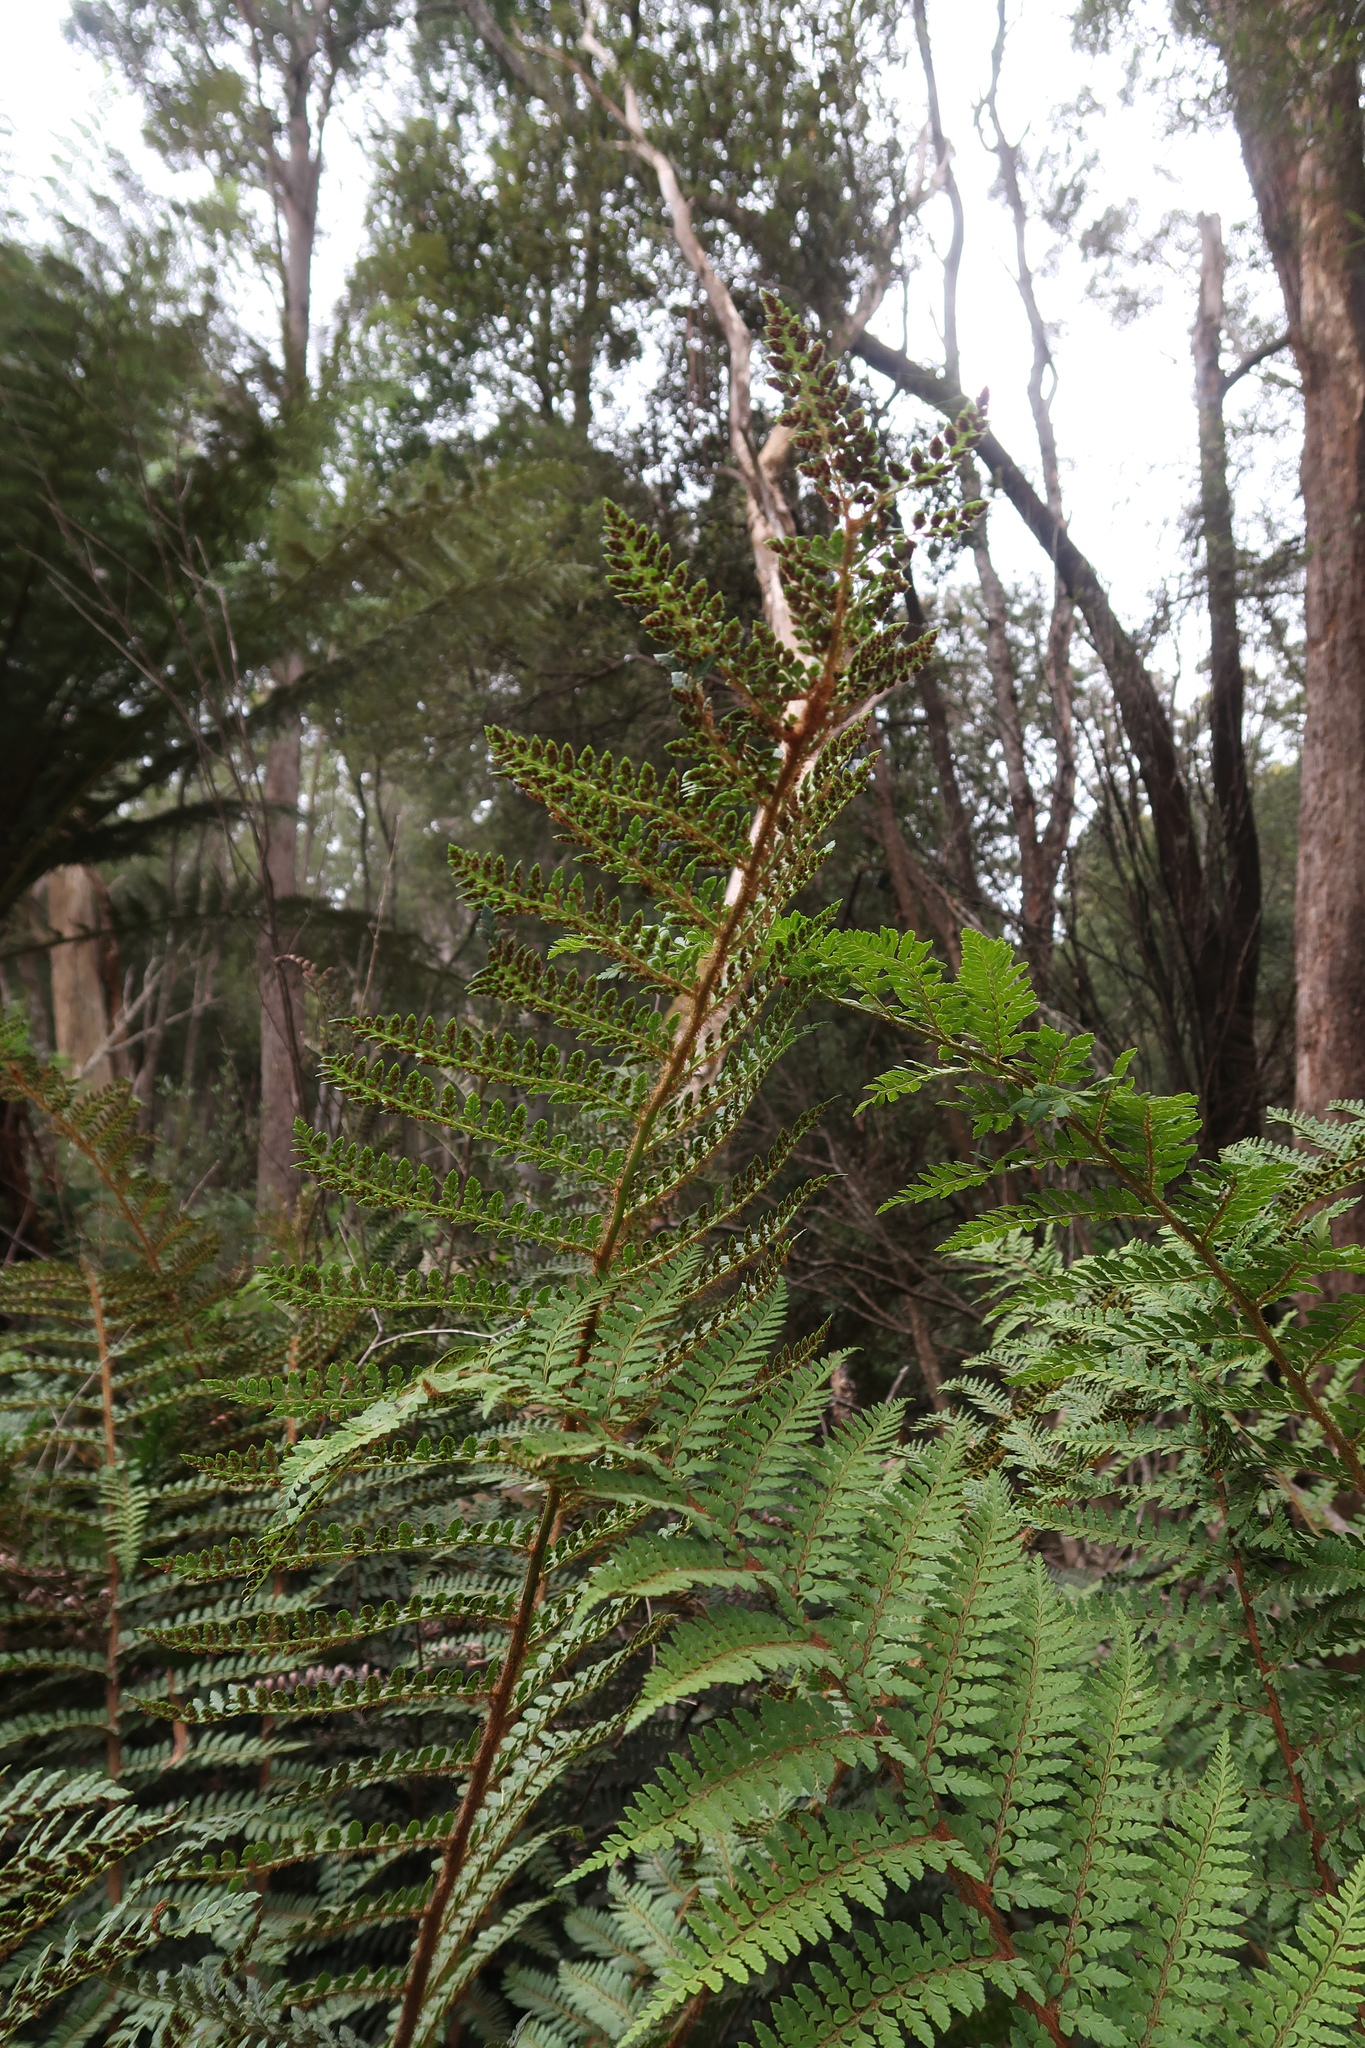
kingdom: Plantae
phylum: Tracheophyta
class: Polypodiopsida
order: Polypodiales
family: Dryopteridaceae
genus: Polystichum
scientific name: Polystichum proliferum
